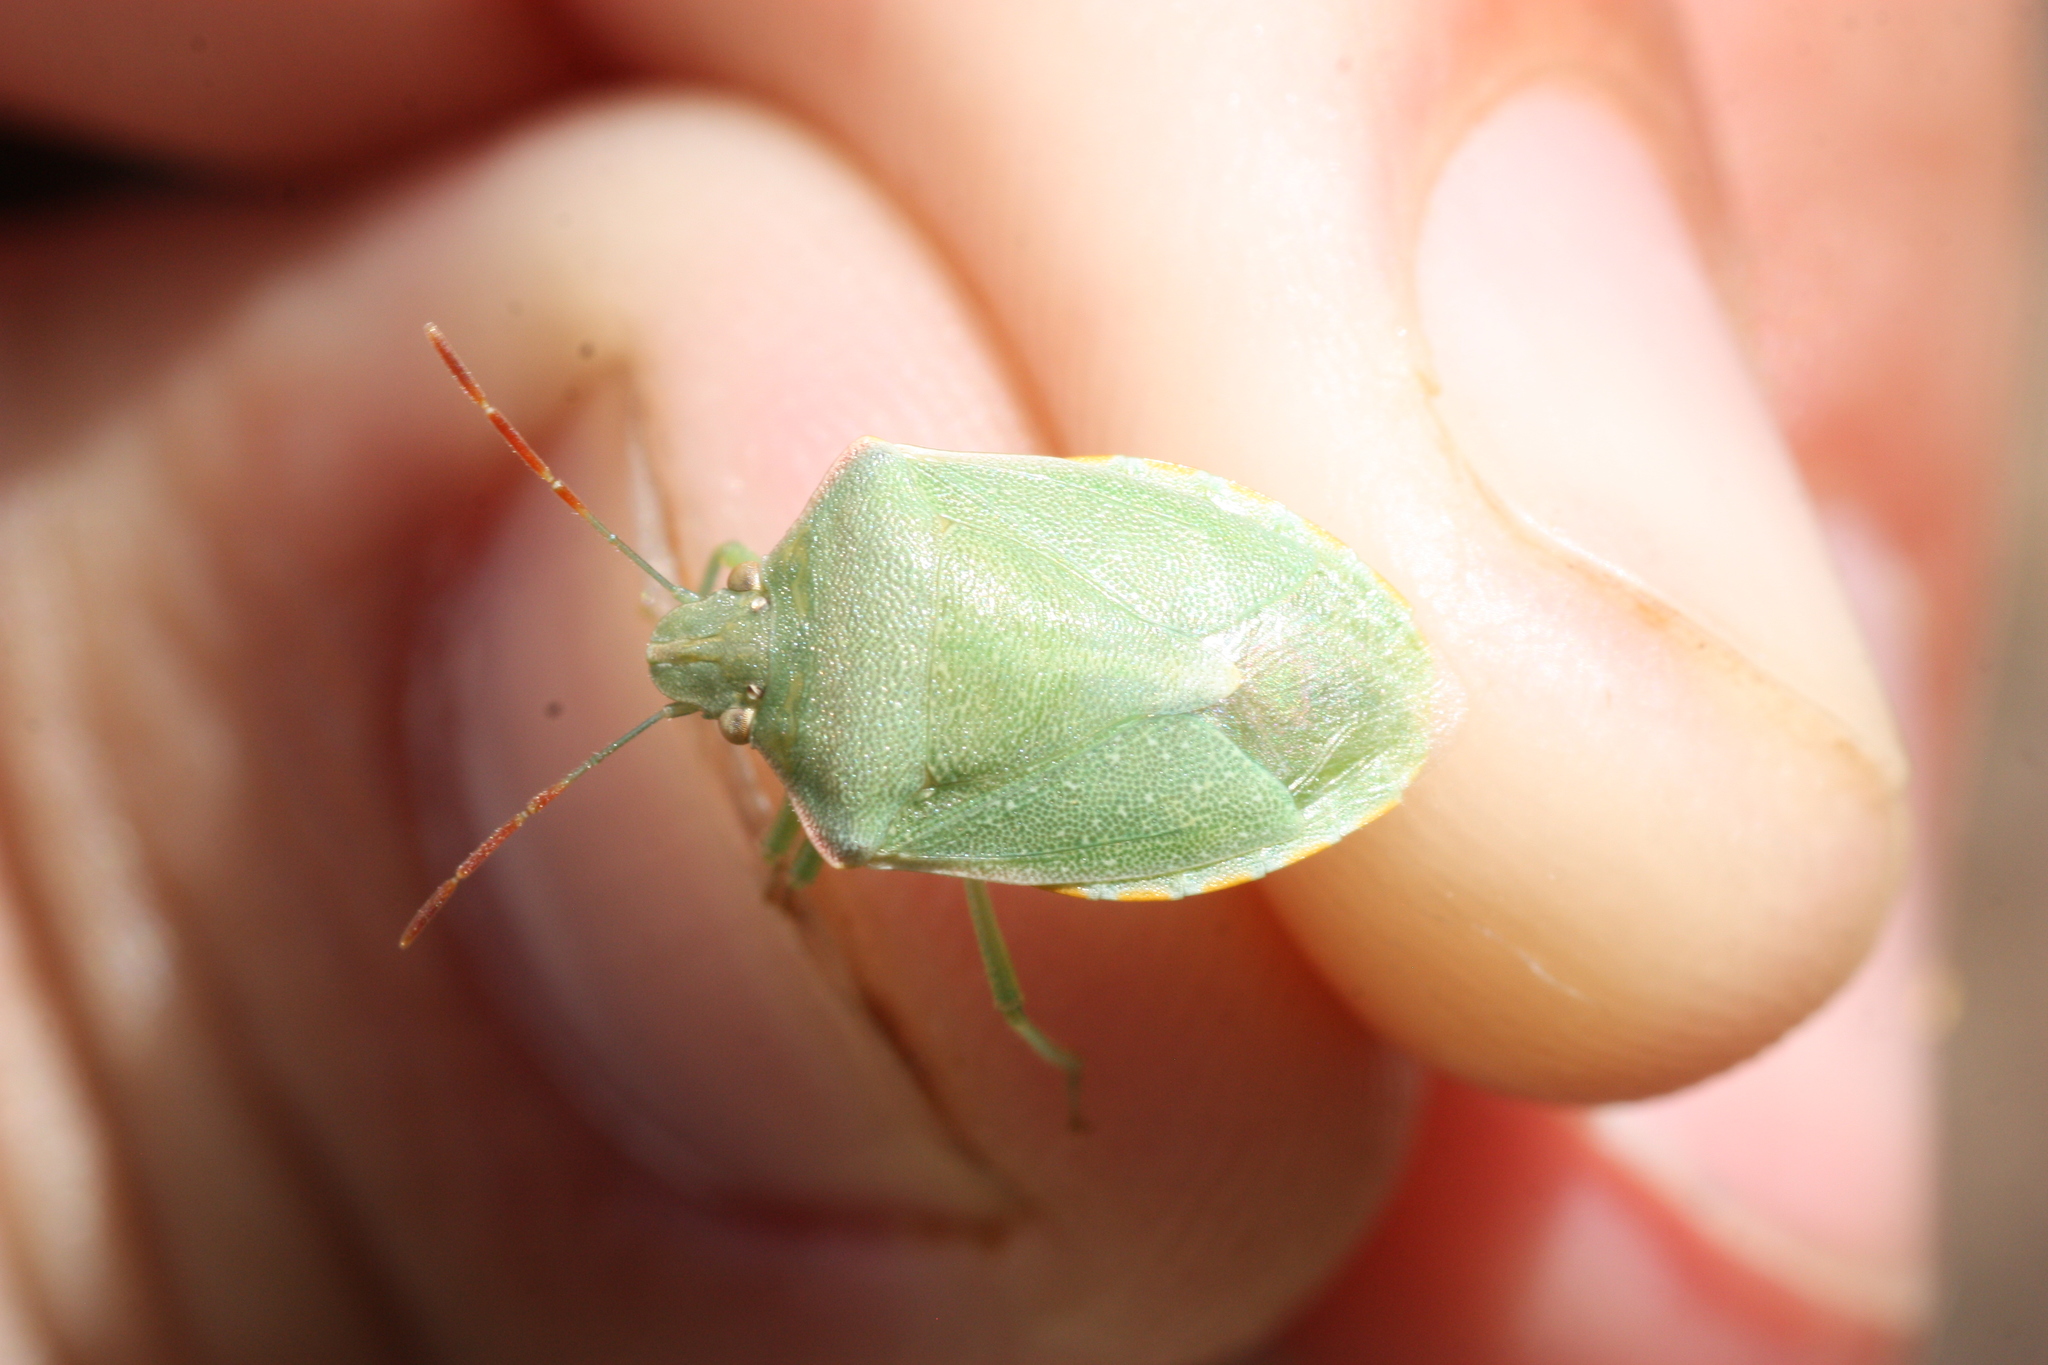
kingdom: Animalia
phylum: Arthropoda
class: Insecta
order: Hemiptera
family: Pentatomidae
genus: Thyanta
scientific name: Thyanta accerra
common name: Stink bug
